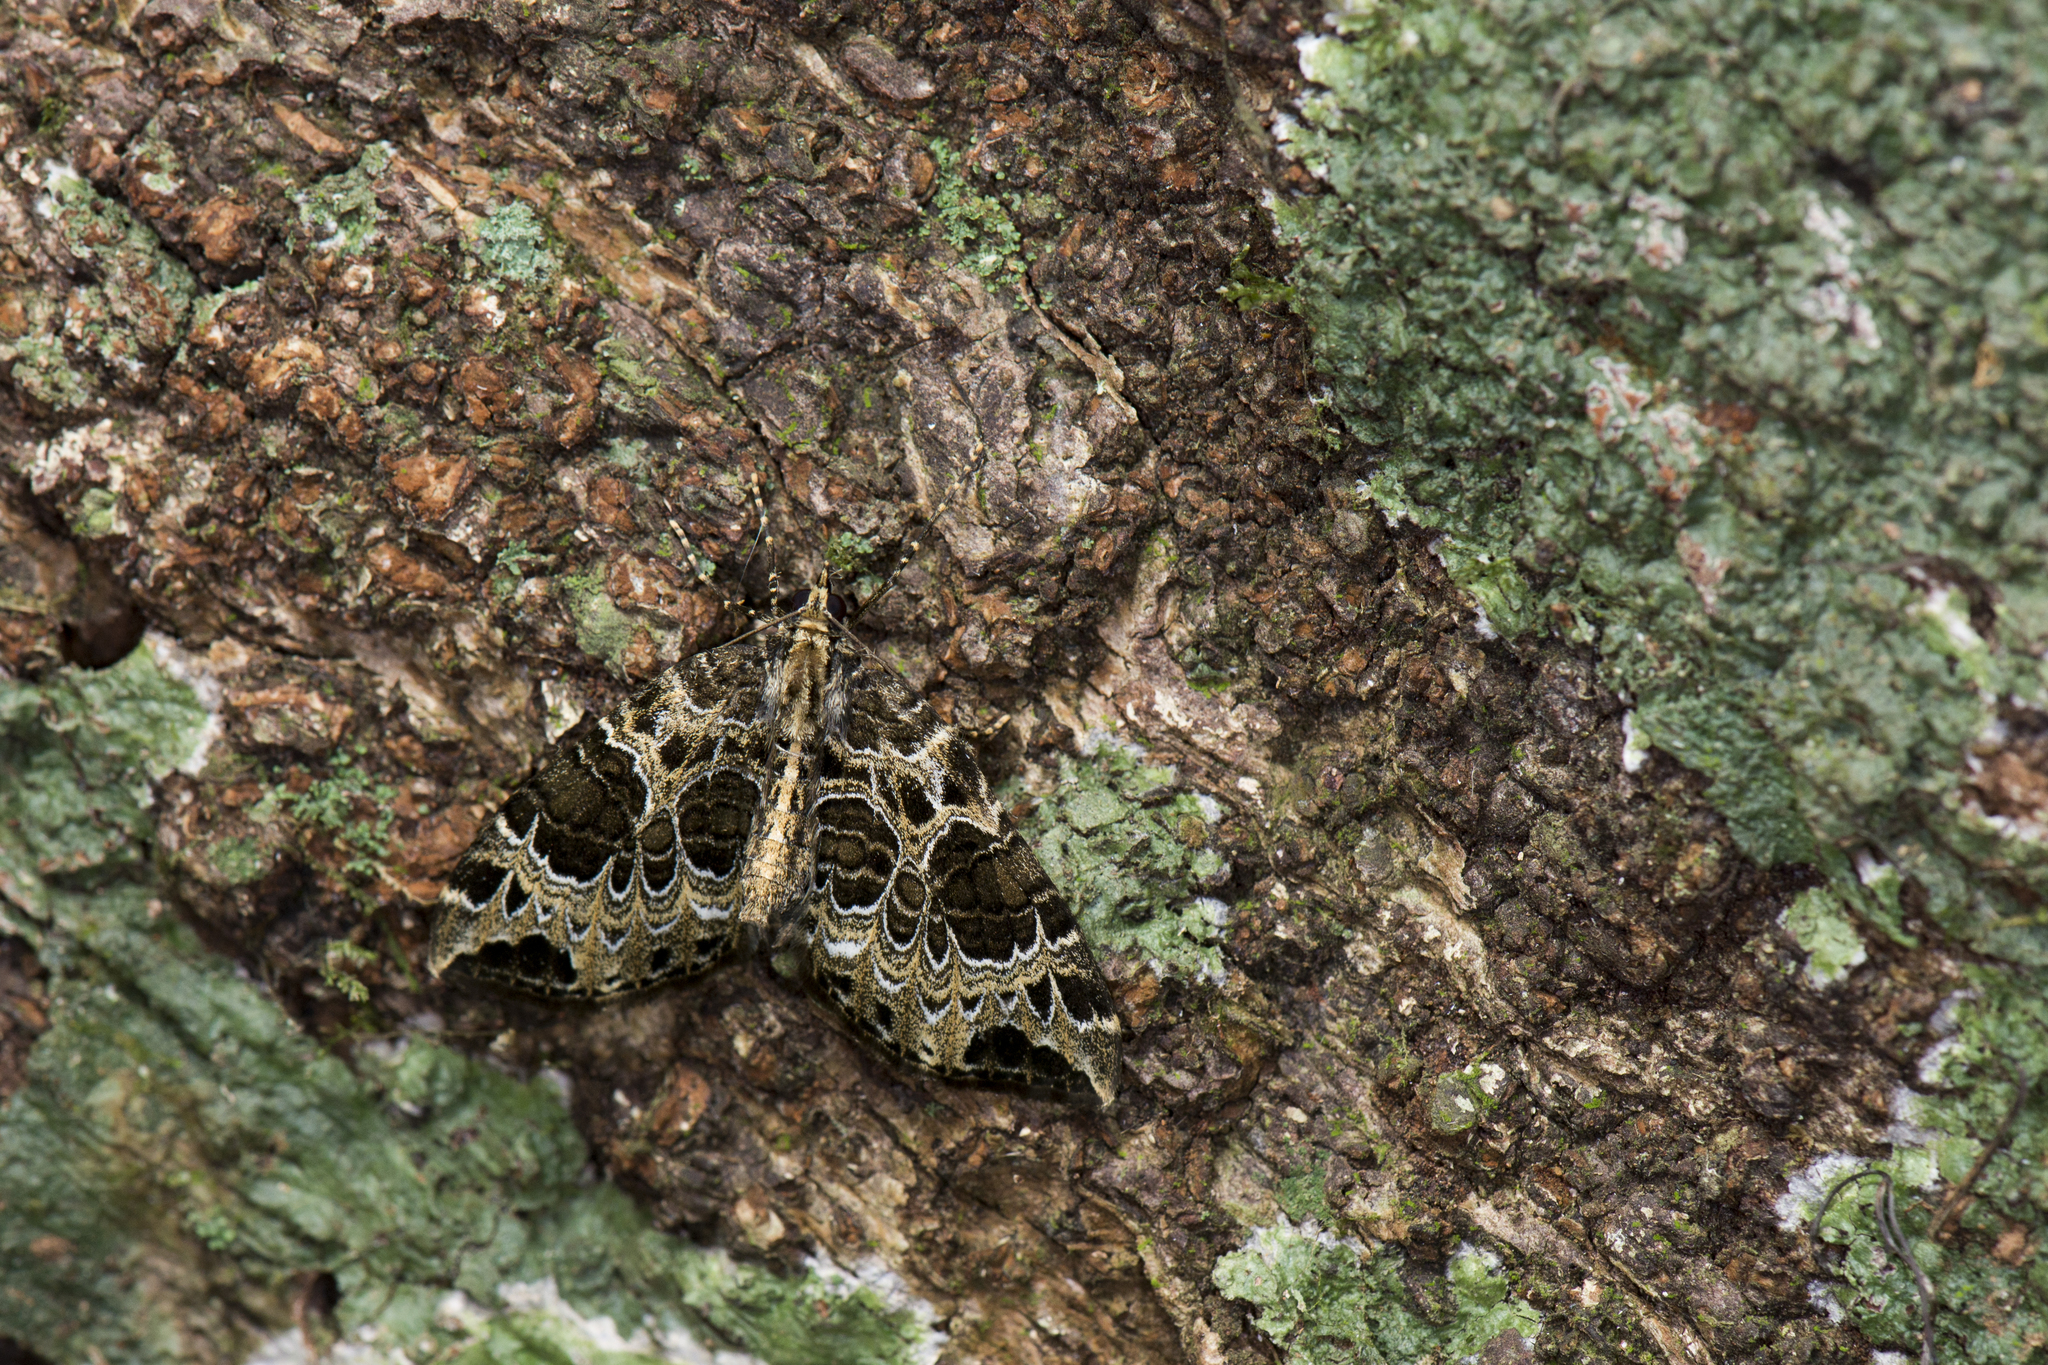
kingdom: Animalia
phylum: Arthropoda
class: Insecta
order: Lepidoptera
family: Geometridae
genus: Eustroma
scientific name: Eustroma melancholica
